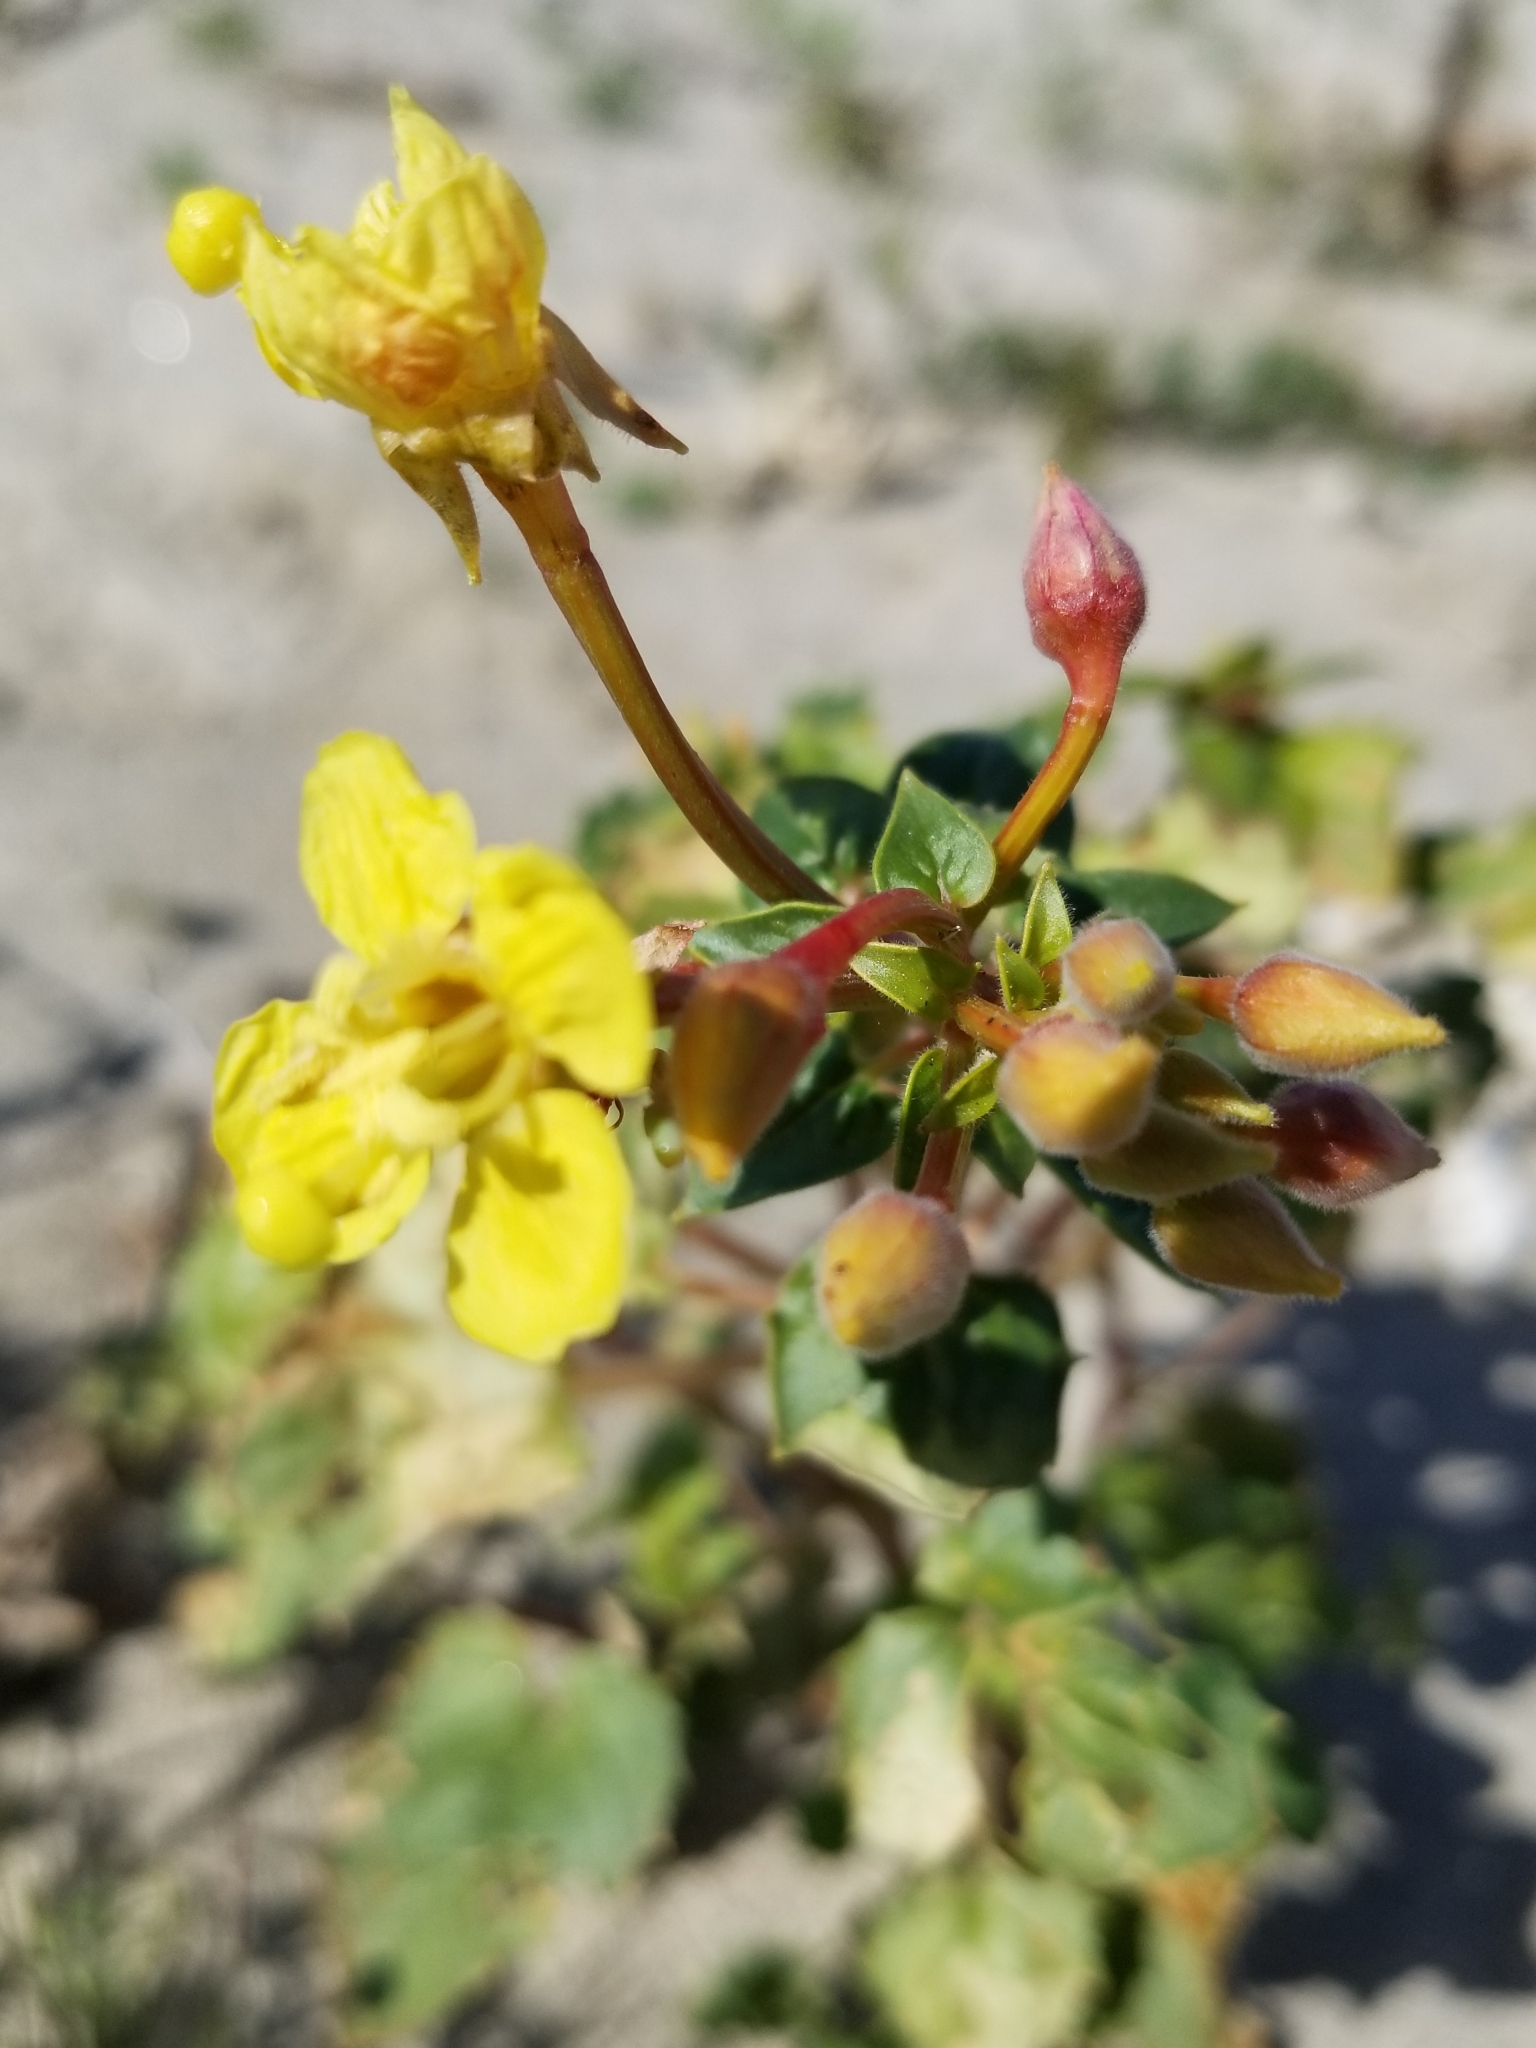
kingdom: Plantae
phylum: Tracheophyta
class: Magnoliopsida
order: Myrtales
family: Onagraceae
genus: Chylismia
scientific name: Chylismia cardiophylla
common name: Heartleaf suncup
